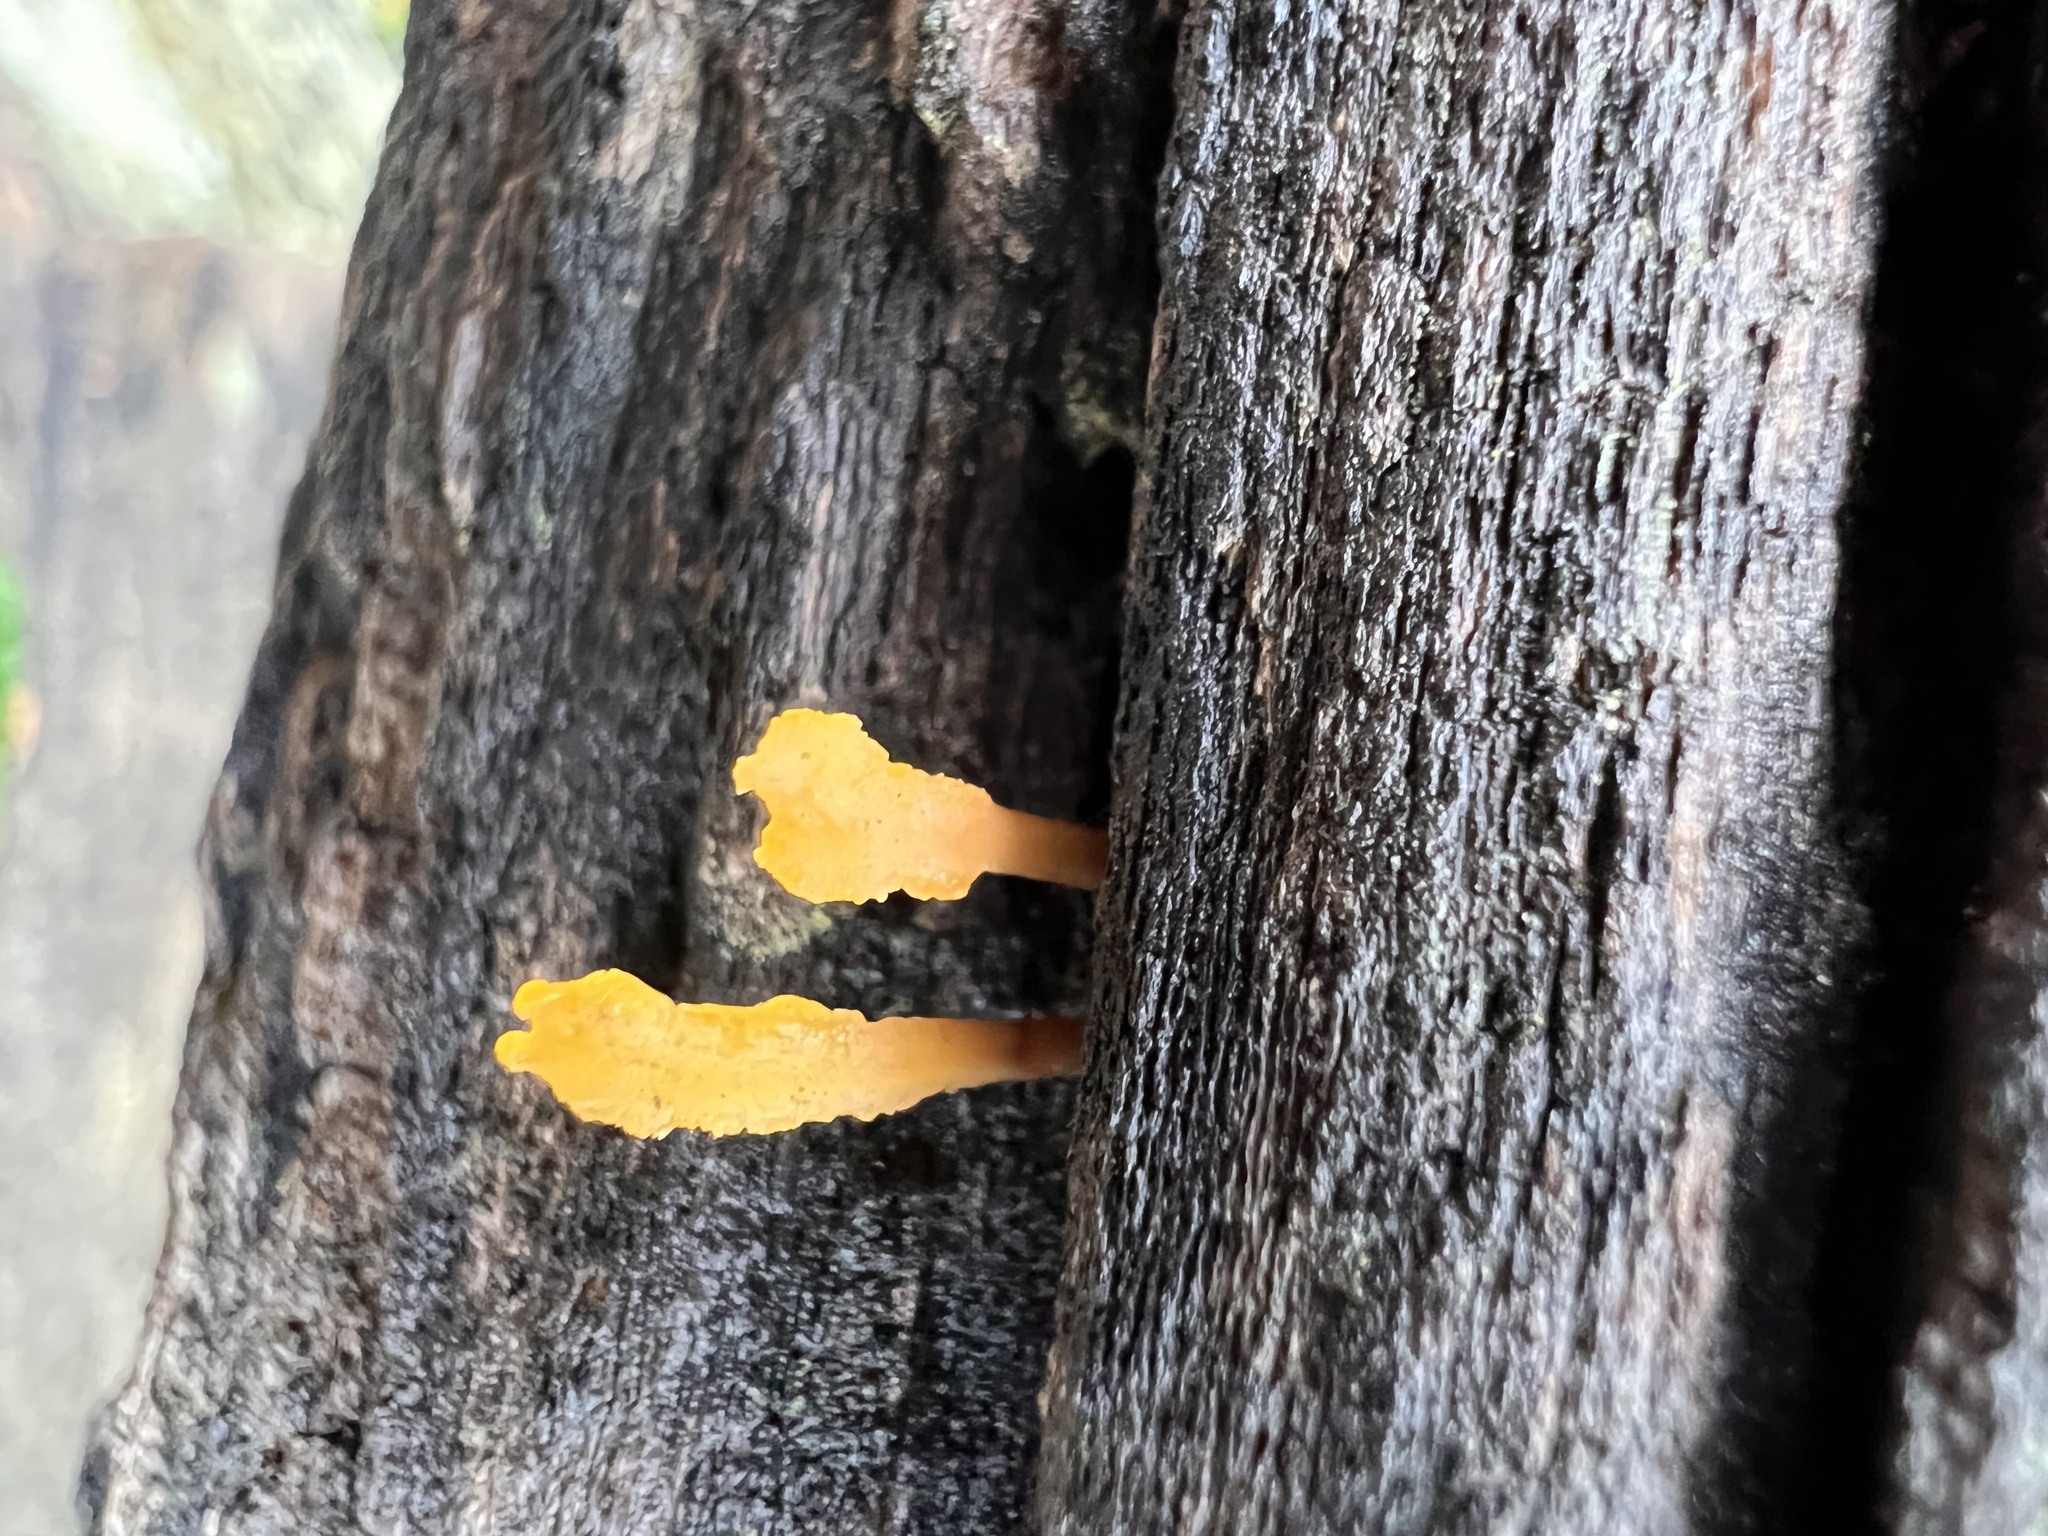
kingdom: Fungi
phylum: Basidiomycota
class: Dacrymycetes
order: Dacrymycetales
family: Dacrymycetaceae
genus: Dacrymyces
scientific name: Dacrymyces spathularius
